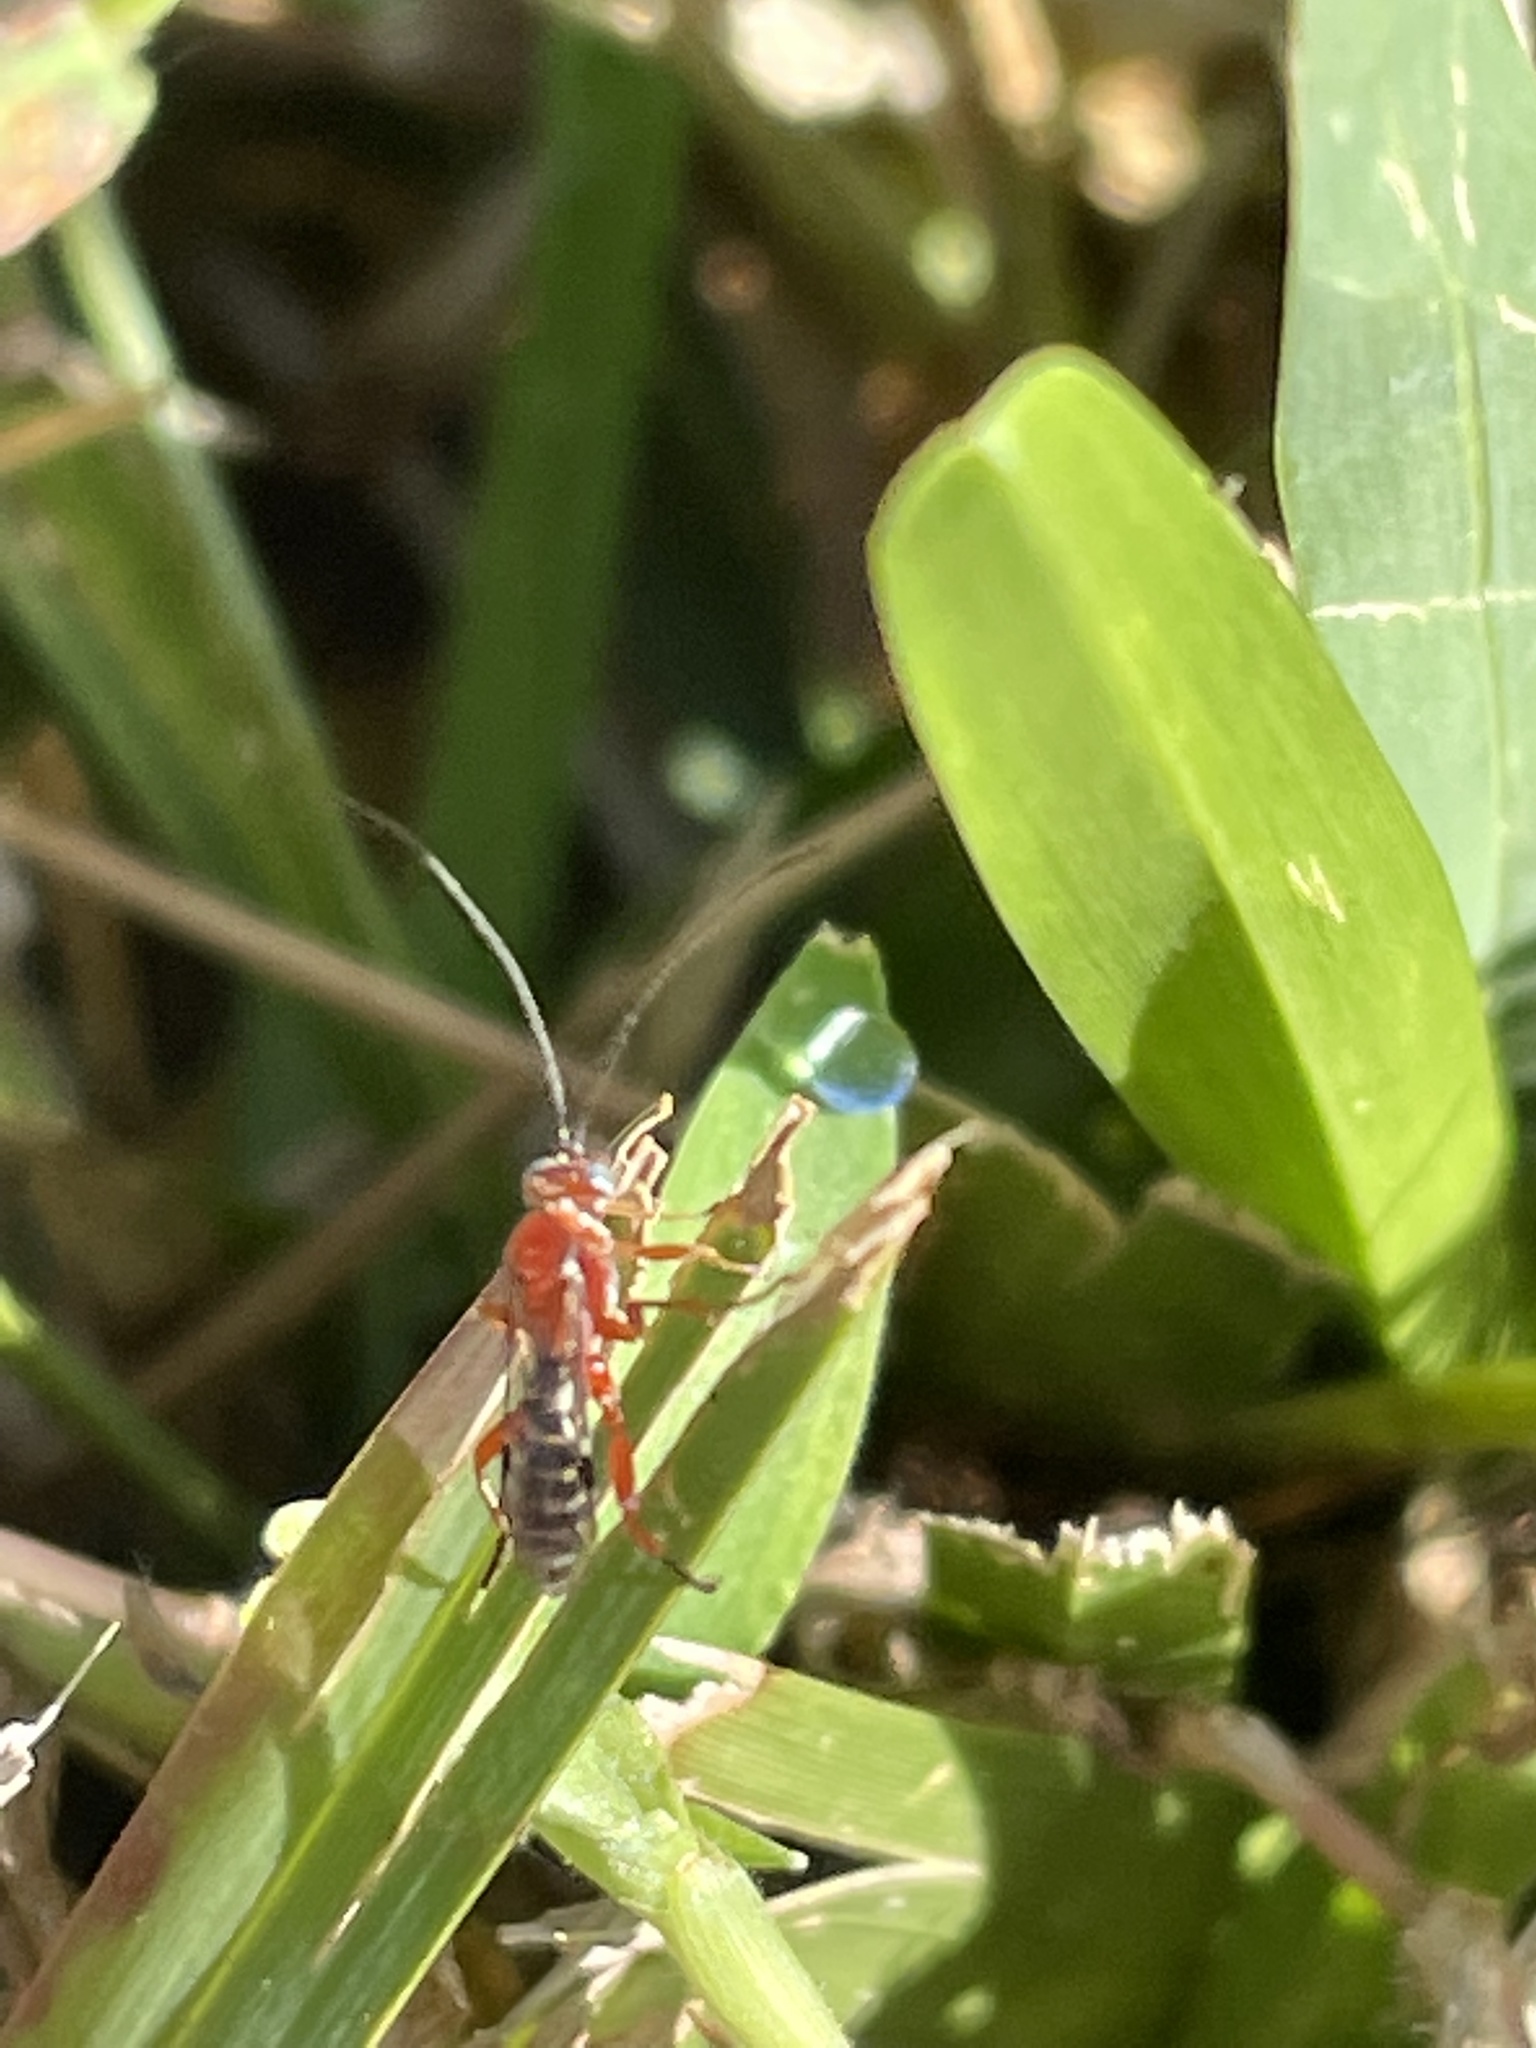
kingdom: Animalia
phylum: Arthropoda
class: Insecta
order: Hymenoptera
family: Ichneumonidae
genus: Pimpla
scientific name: Pimpla marginella
